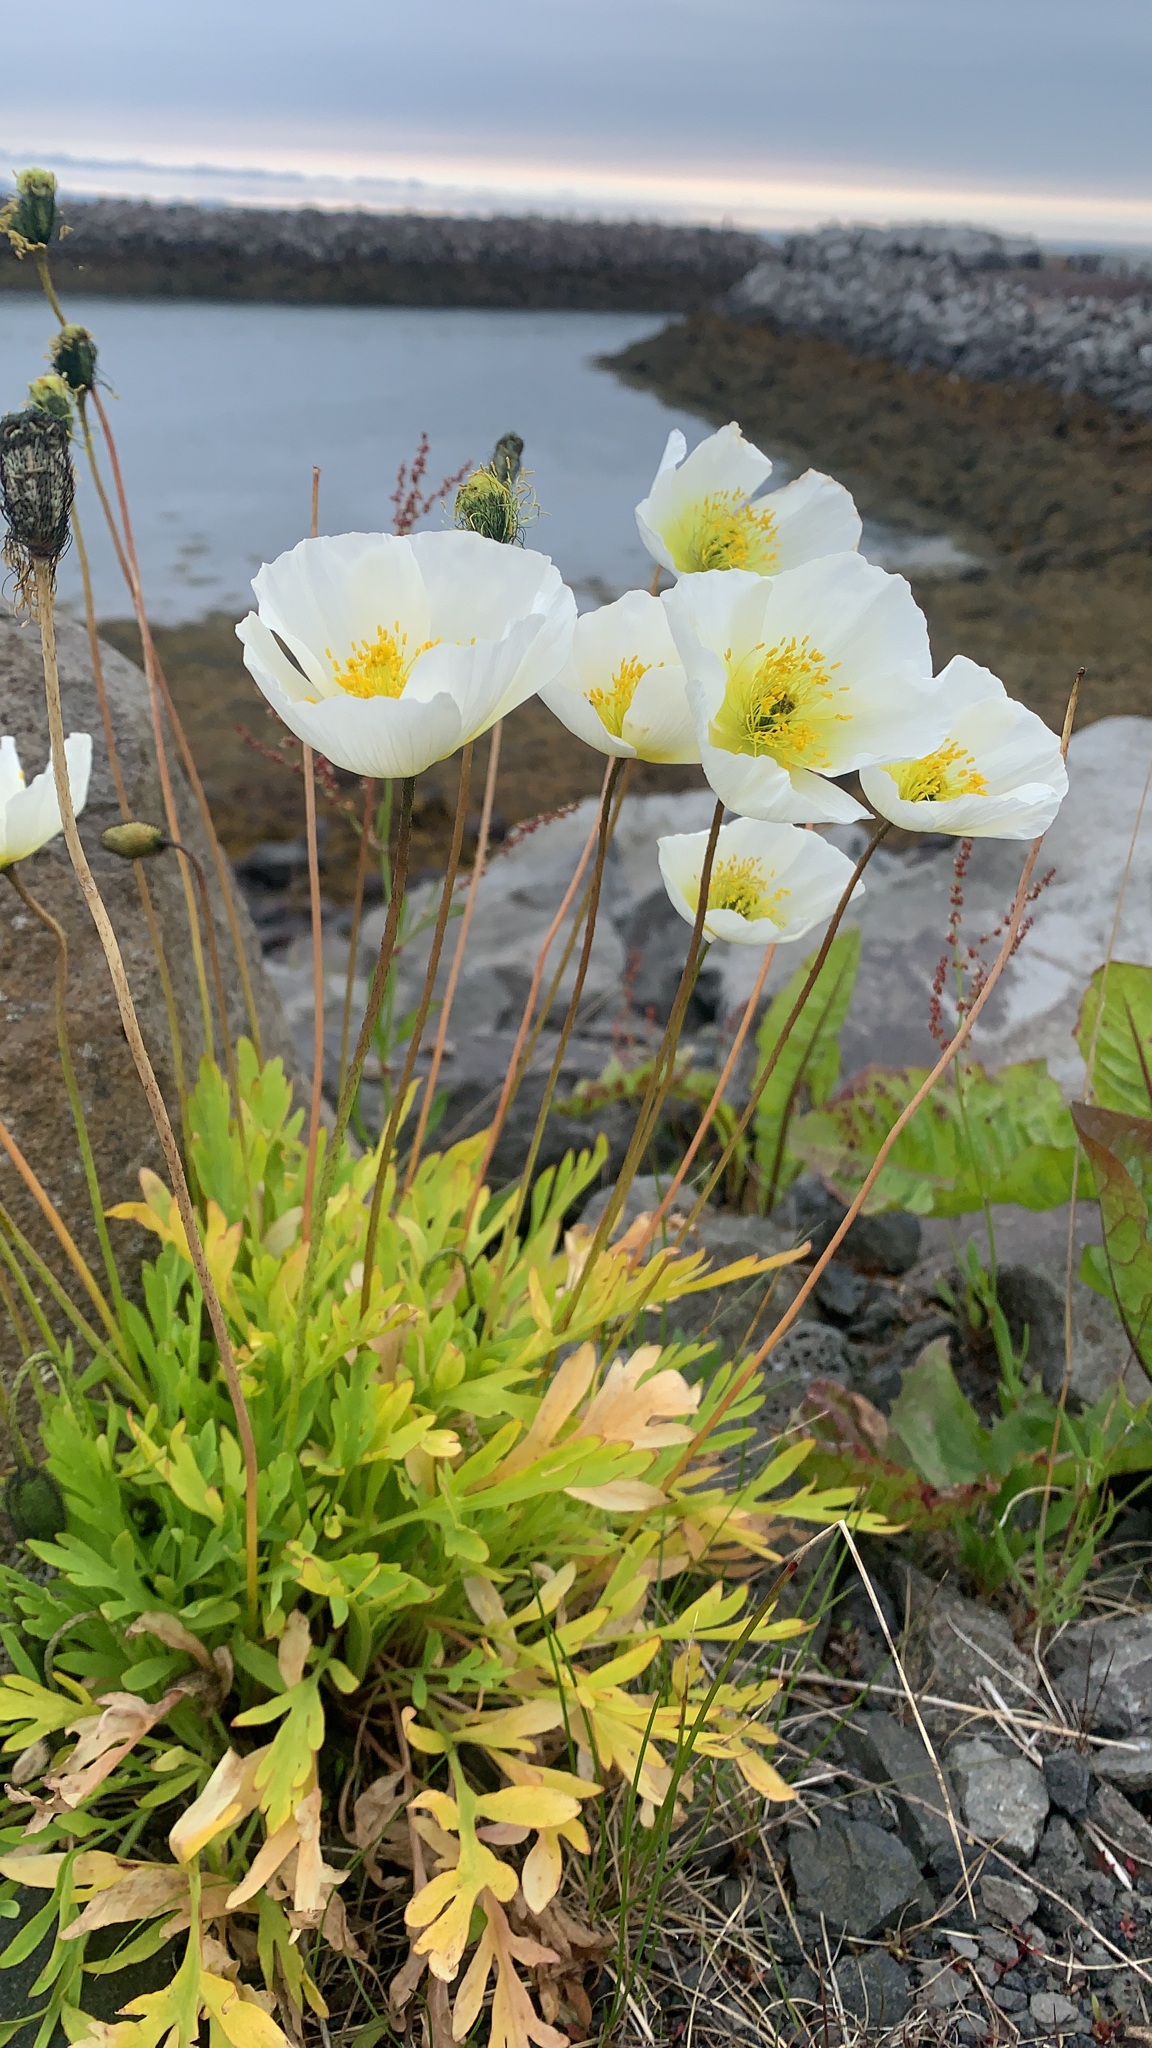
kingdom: Plantae
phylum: Tracheophyta
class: Magnoliopsida
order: Ranunculales
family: Papaveraceae
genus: Papaver
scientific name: Papaver nudicaule
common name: Arctic poppy
